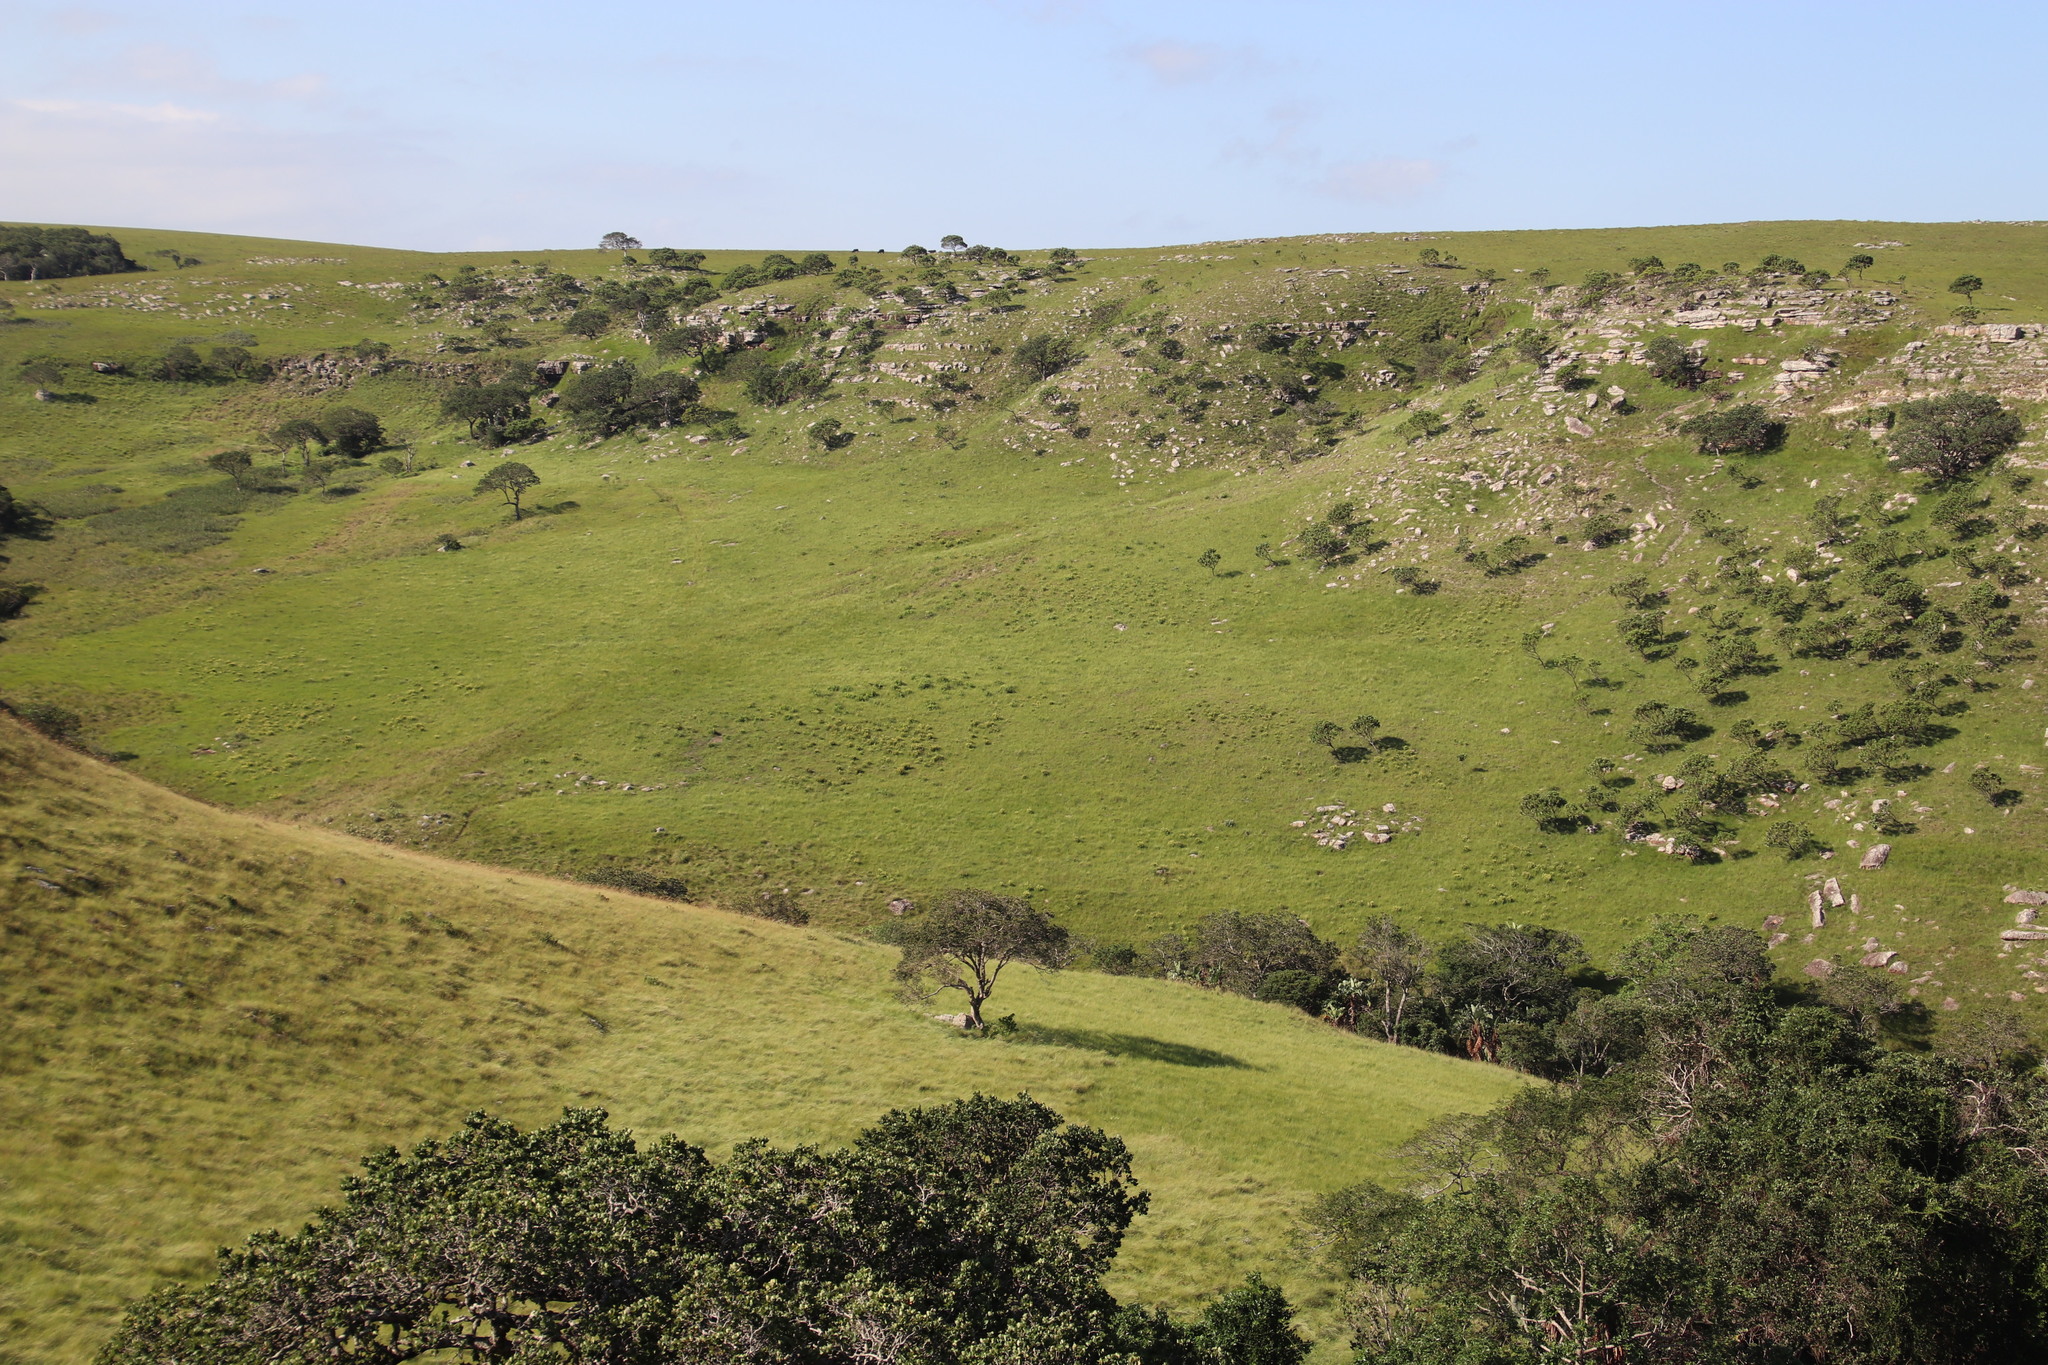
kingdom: Plantae
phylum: Tracheophyta
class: Magnoliopsida
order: Proteales
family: Proteaceae
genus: Leucadendron
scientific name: Leucadendron spissifolium
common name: Spear-leaf conebush
